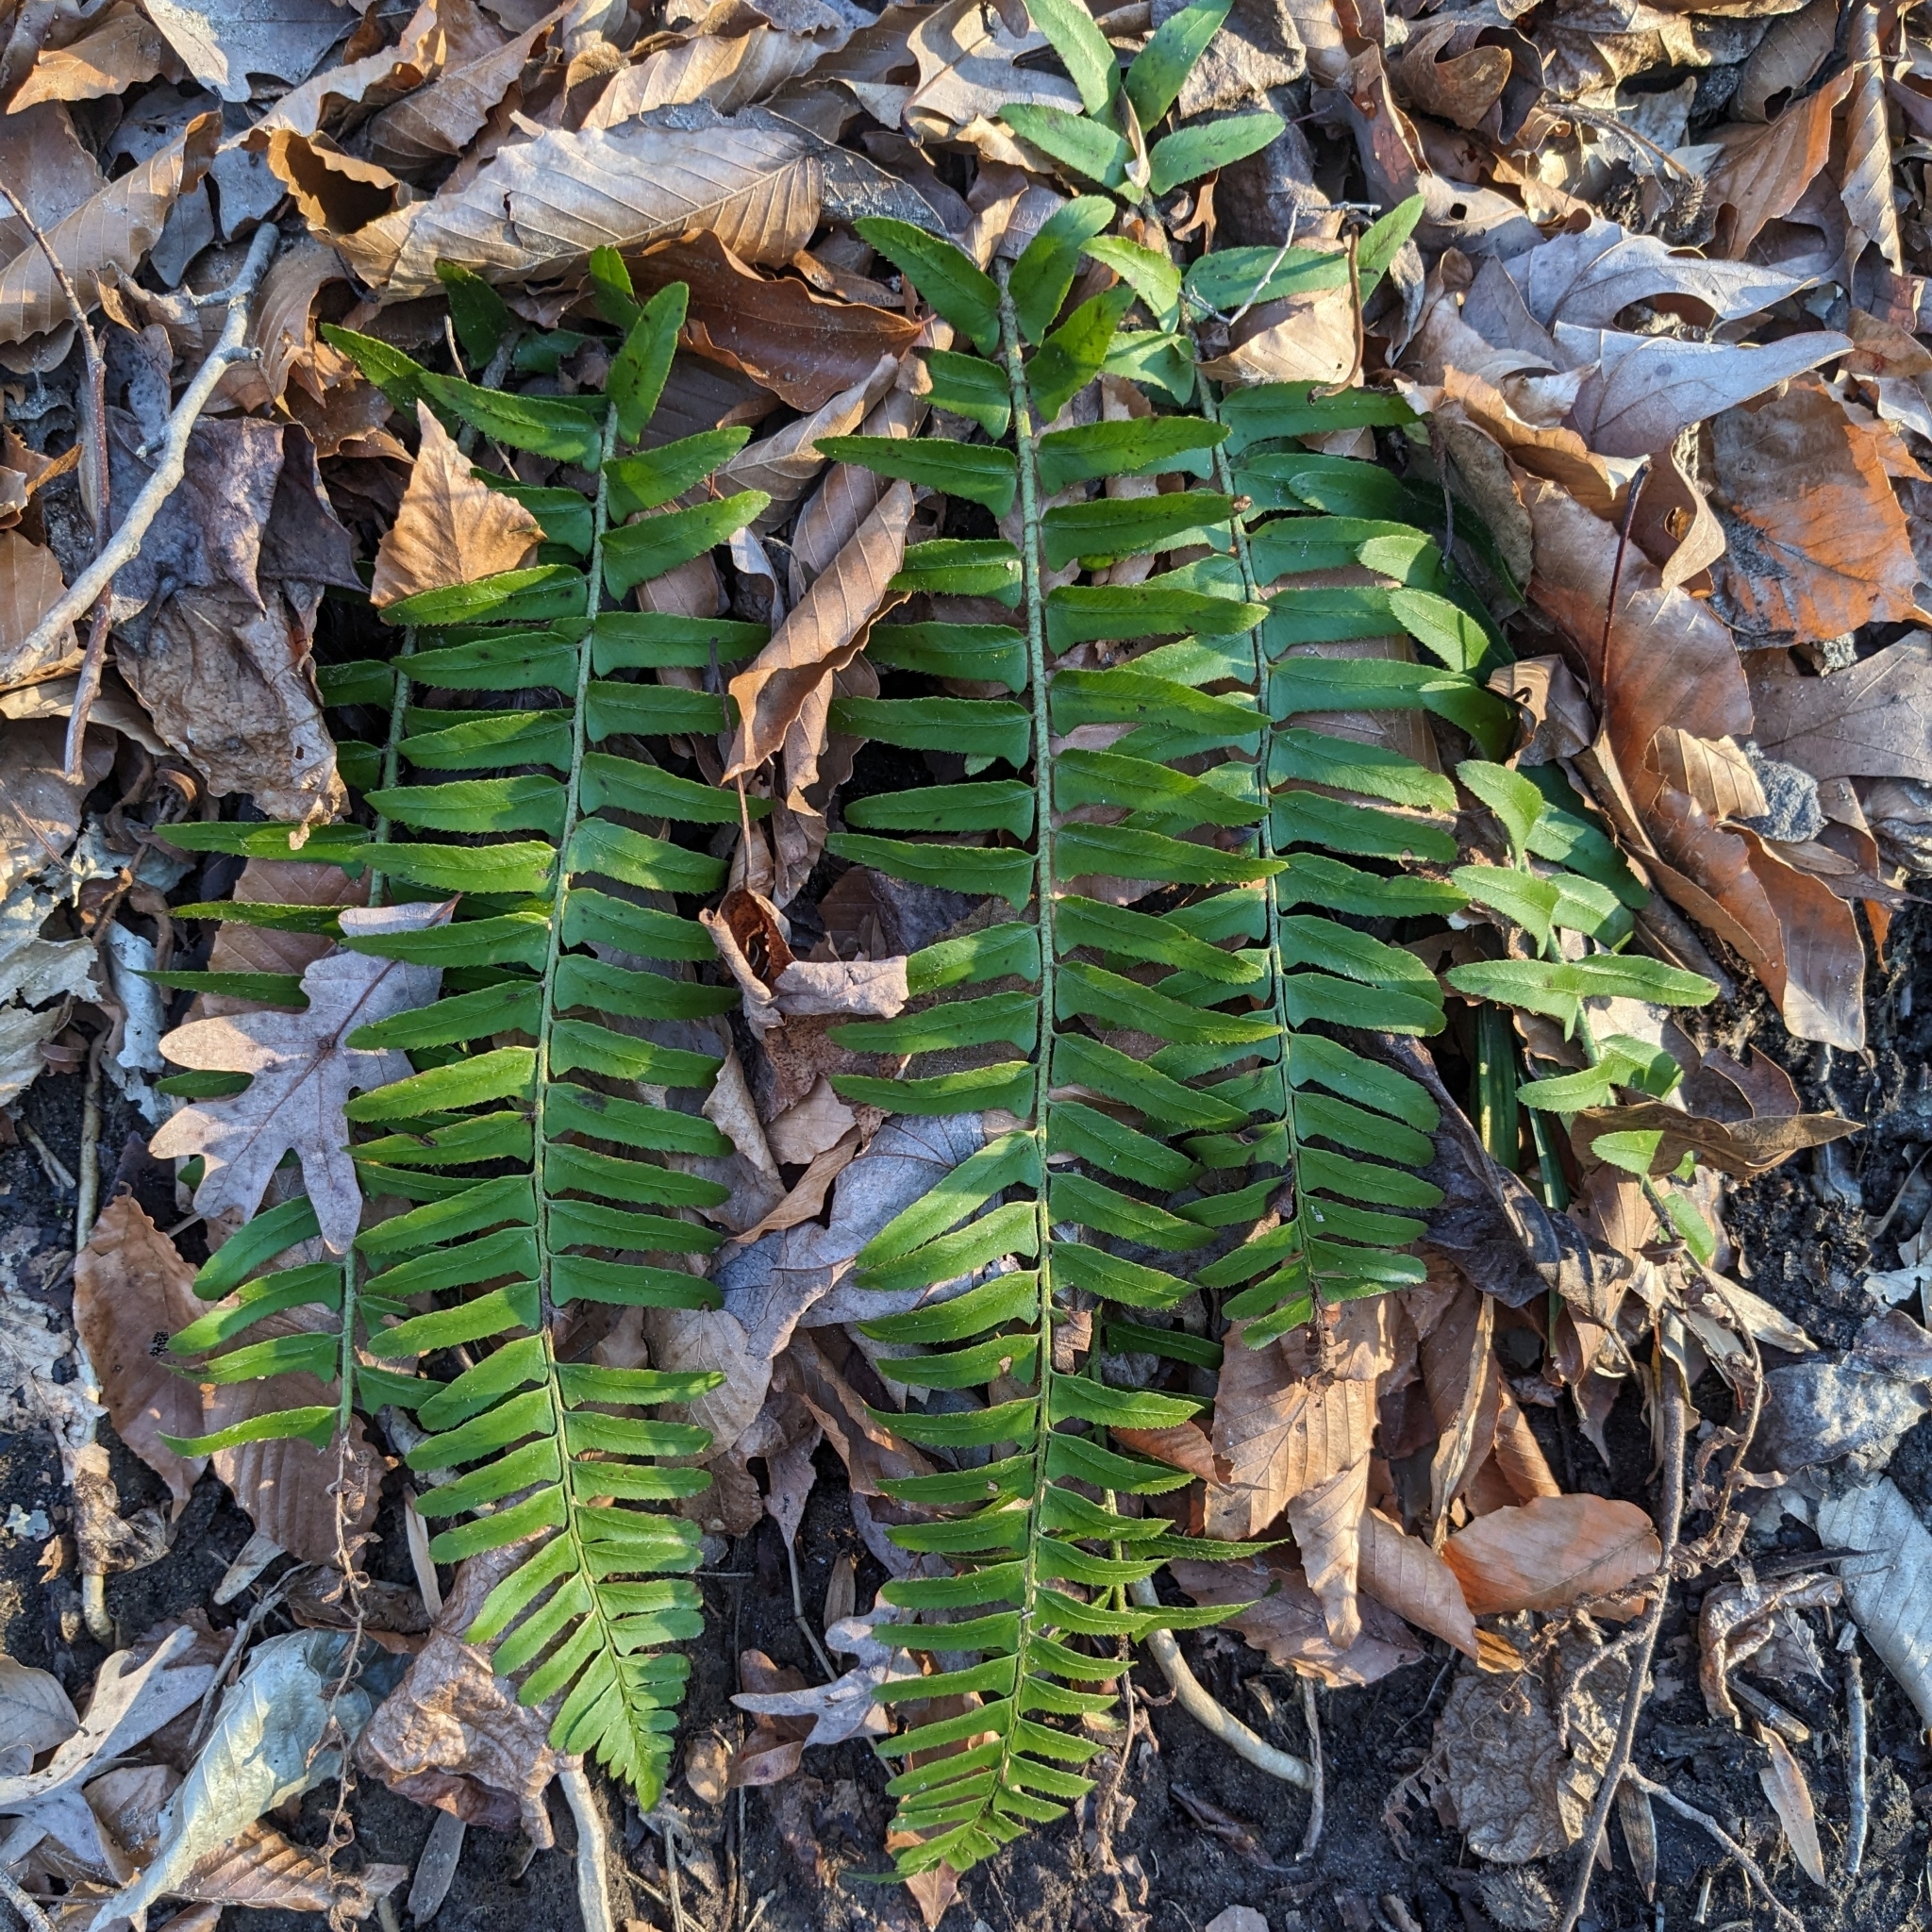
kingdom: Plantae
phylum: Tracheophyta
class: Polypodiopsida
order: Polypodiales
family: Dryopteridaceae
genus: Polystichum
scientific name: Polystichum acrostichoides
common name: Christmas fern
